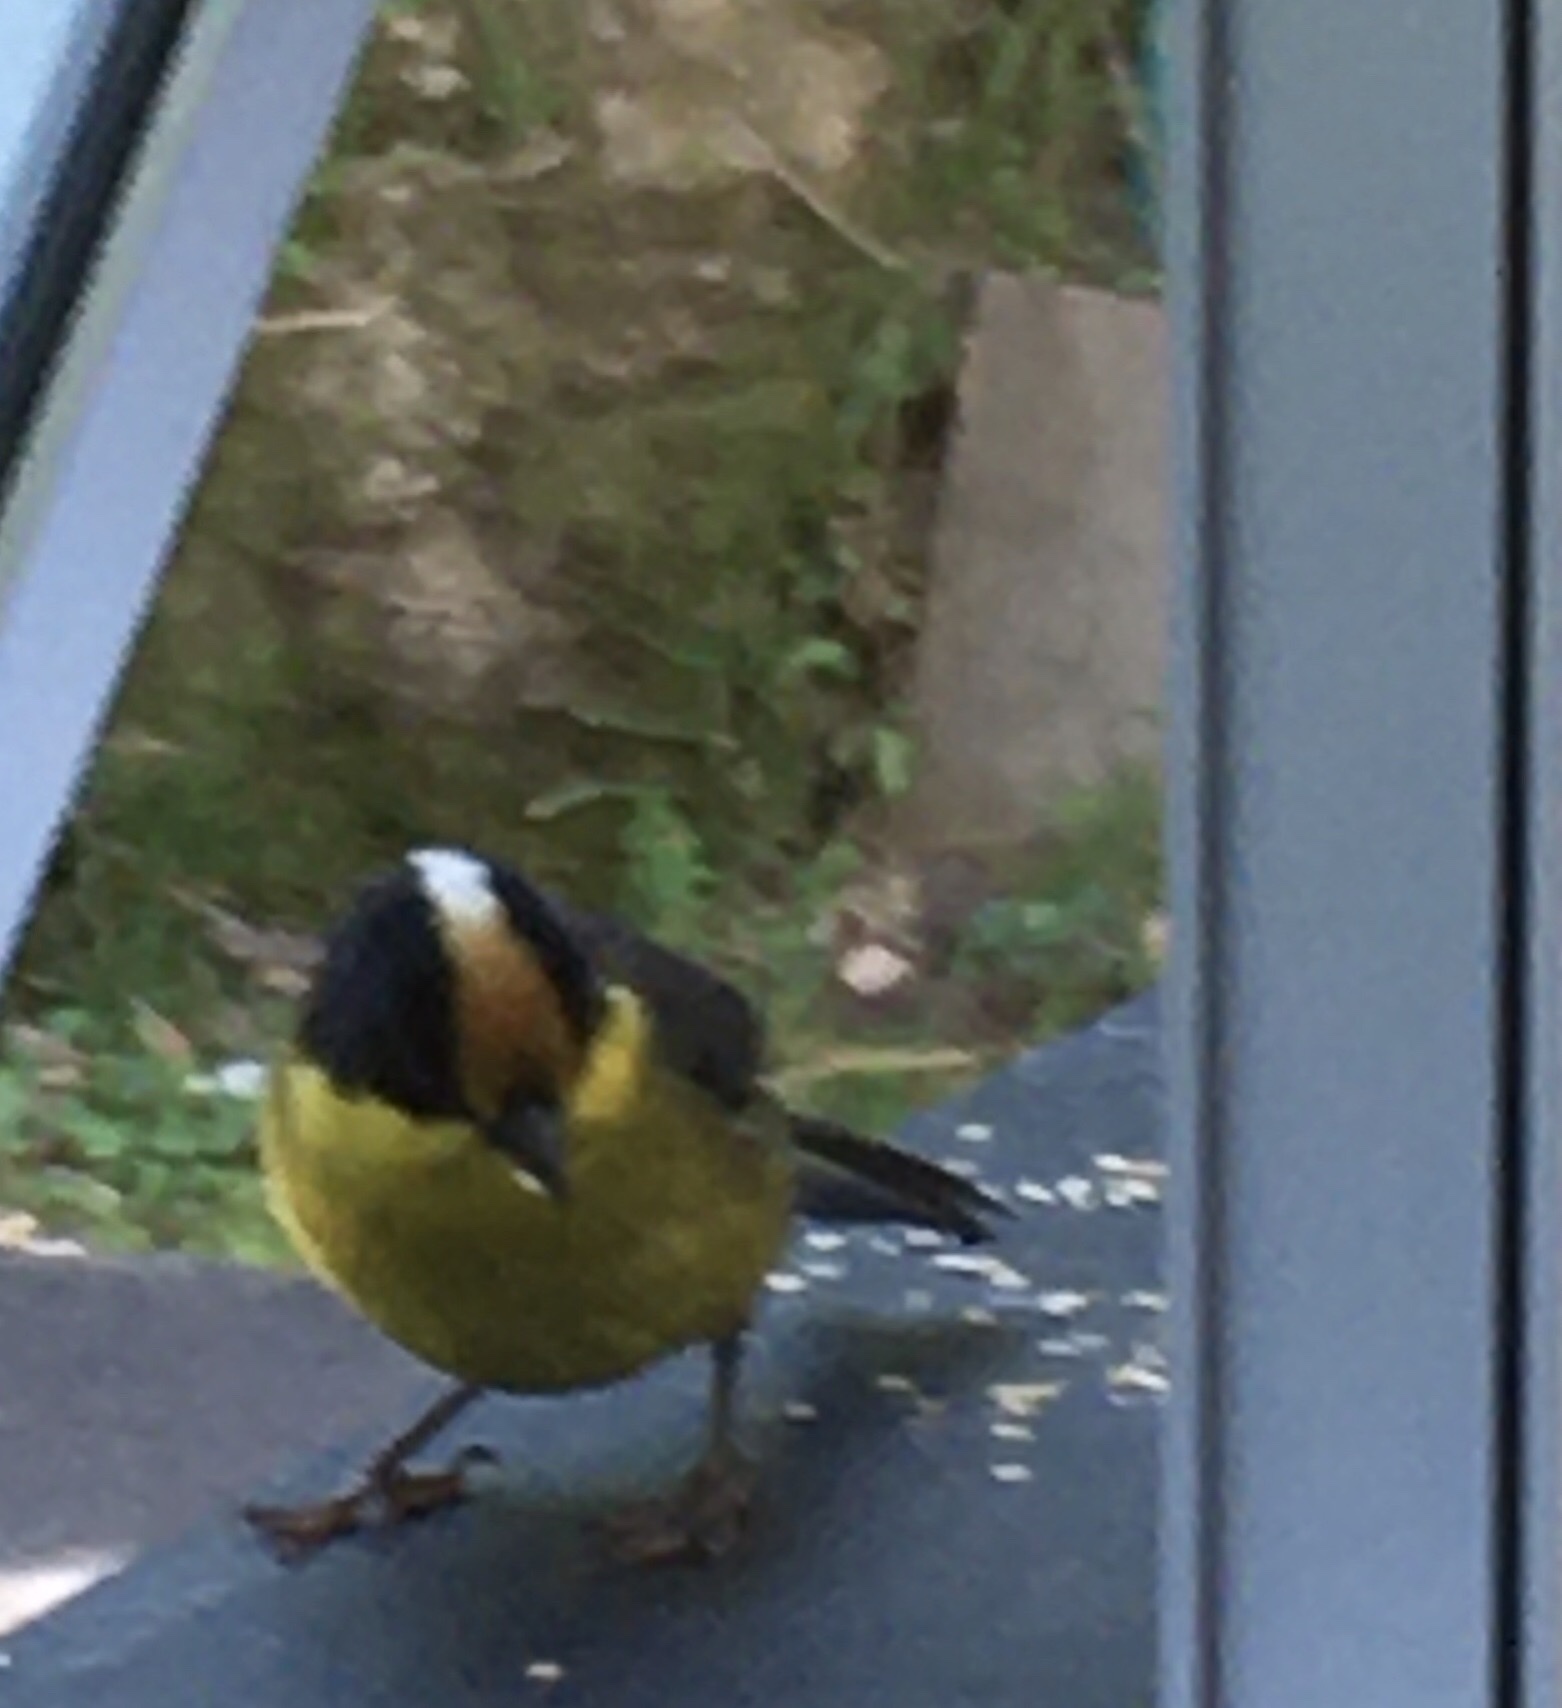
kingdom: Animalia
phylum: Chordata
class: Aves
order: Passeriformes
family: Passerellidae
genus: Atlapetes
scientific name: Atlapetes pallidinucha
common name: Pale-naped brushfinch
